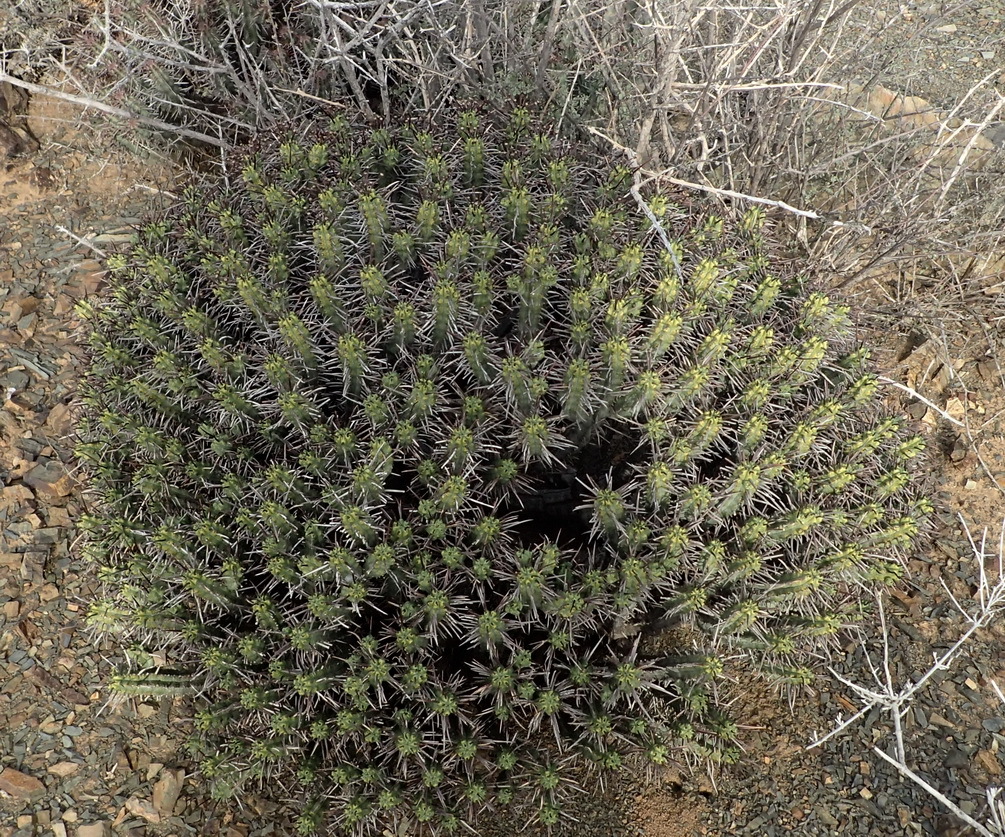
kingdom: Plantae
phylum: Tracheophyta
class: Magnoliopsida
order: Malpighiales
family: Euphorbiaceae
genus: Euphorbia
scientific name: Euphorbia heptagona
